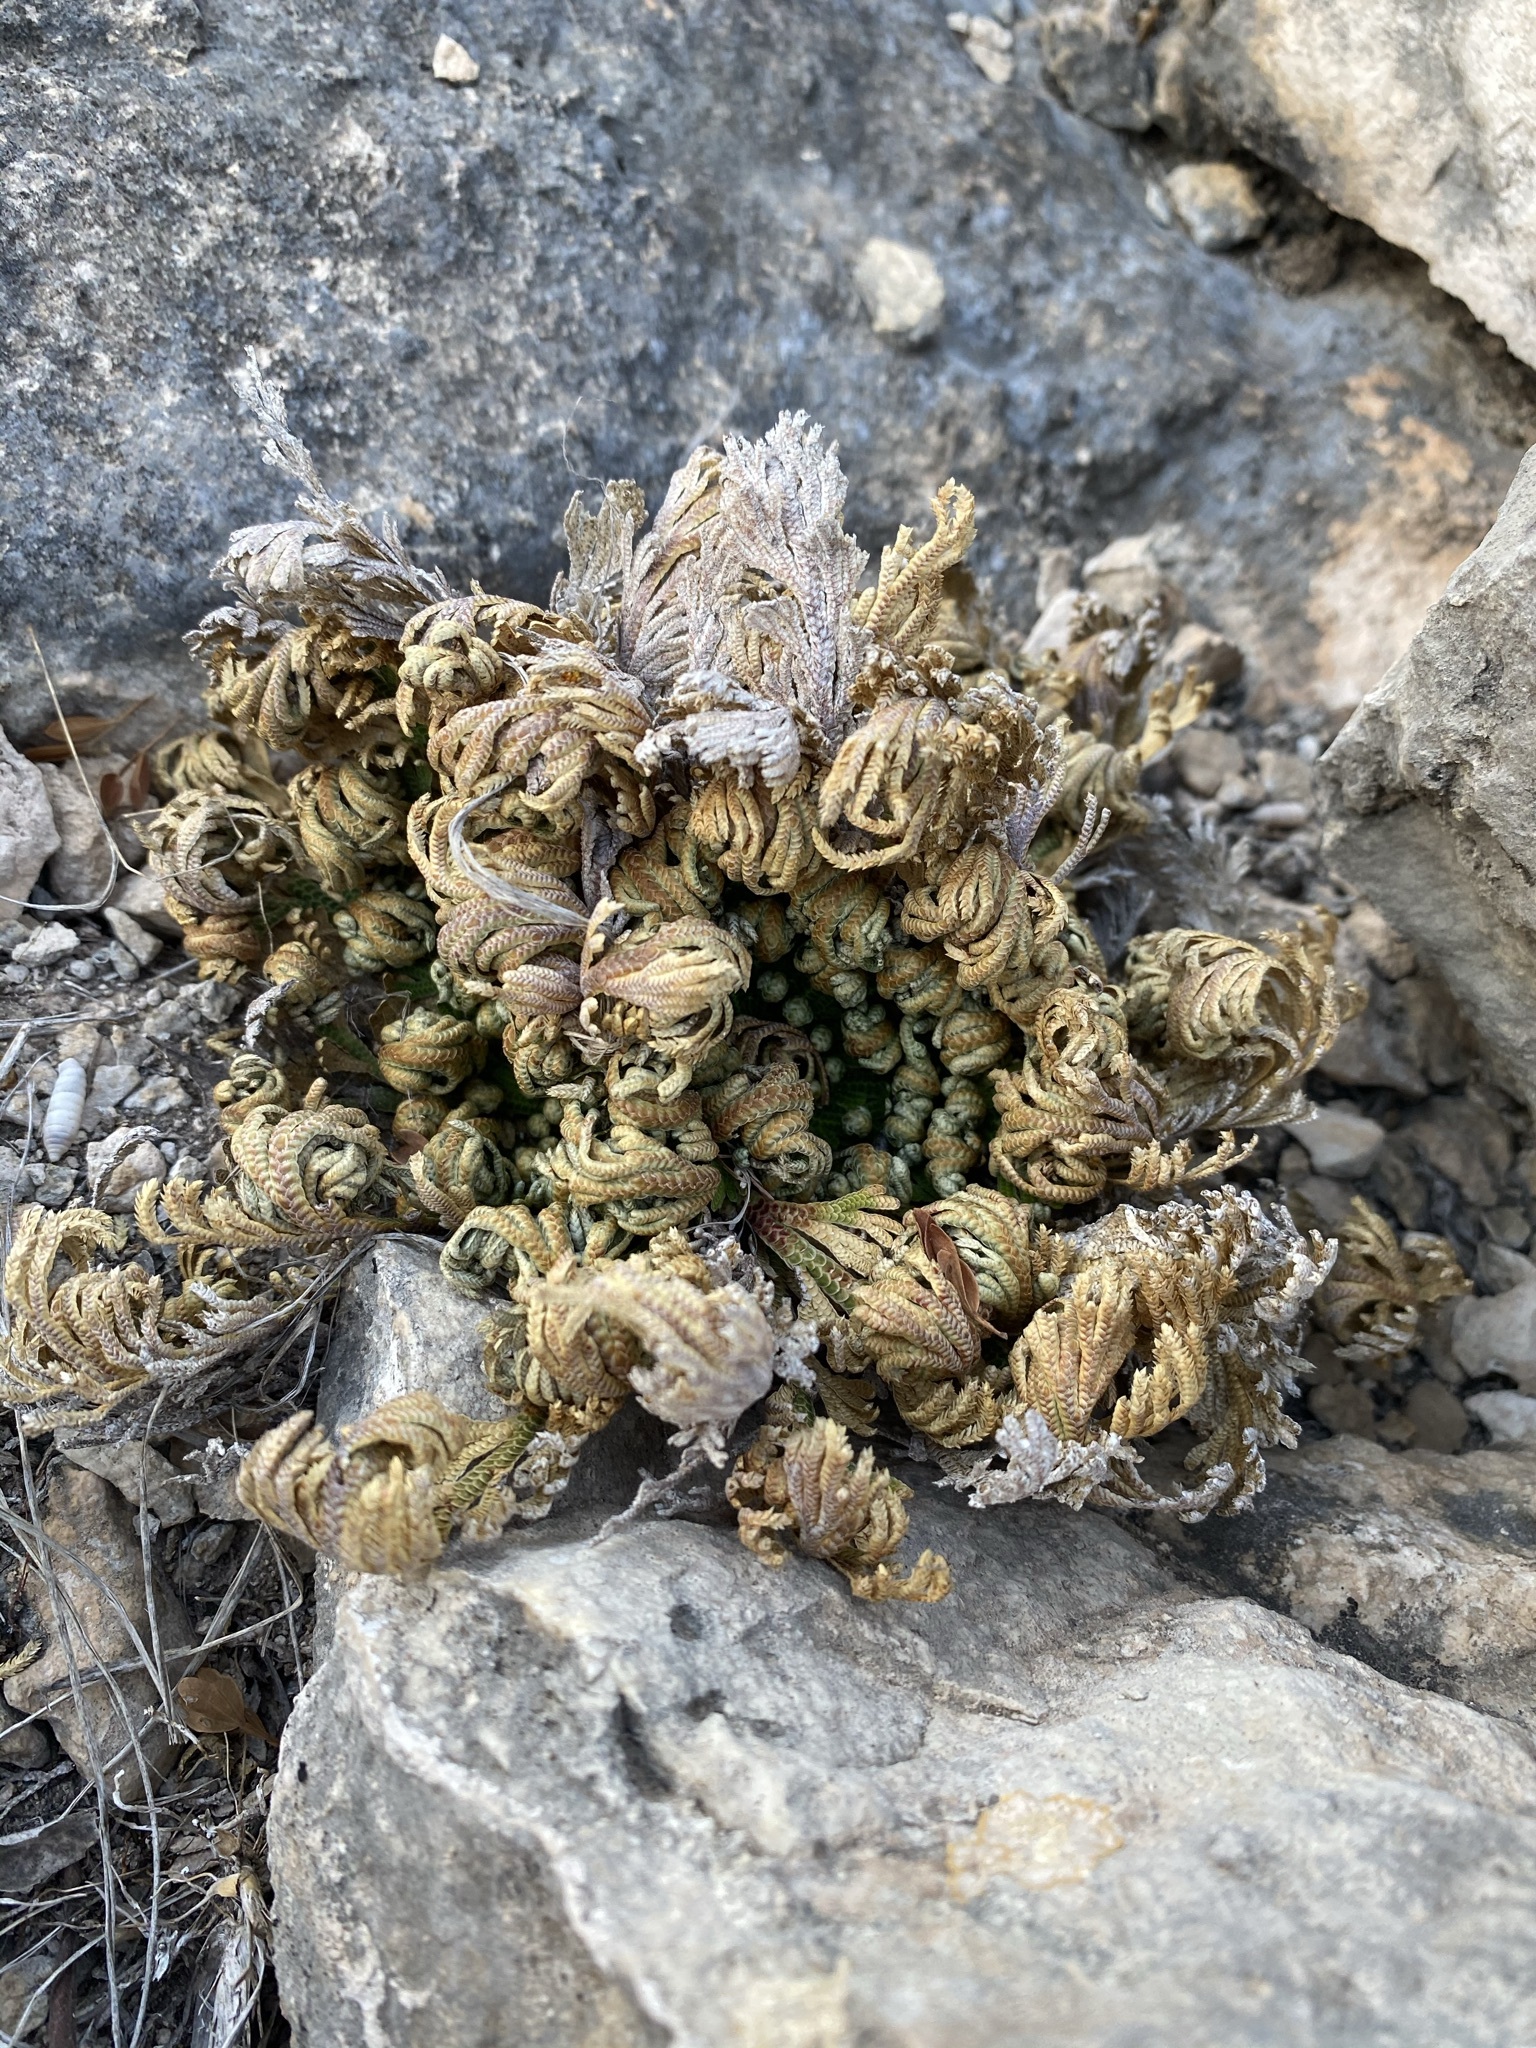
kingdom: Plantae
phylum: Tracheophyta
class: Lycopodiopsida
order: Selaginellales
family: Selaginellaceae
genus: Selaginella
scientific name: Selaginella lepidophylla
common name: Rose-of-jericho
